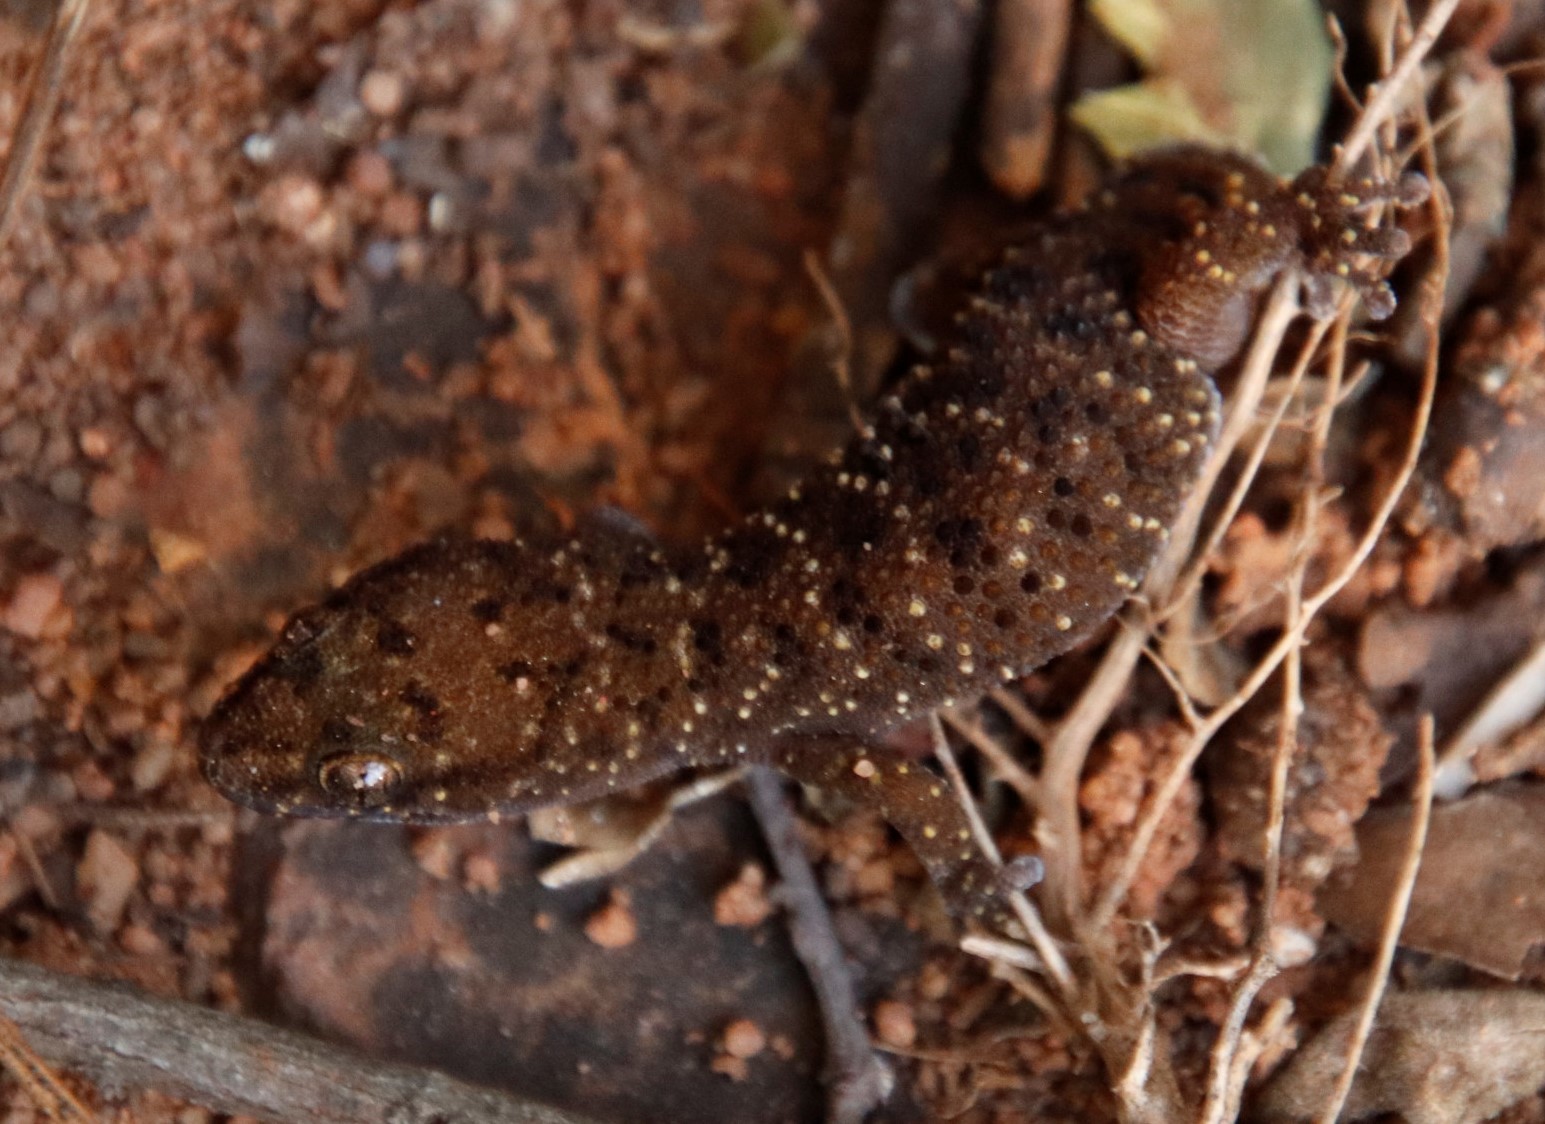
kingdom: Animalia
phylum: Chordata
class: Squamata
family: Gekkonidae
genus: Pachydactylus
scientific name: Pachydactylus affinis
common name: Transvaal gecko
